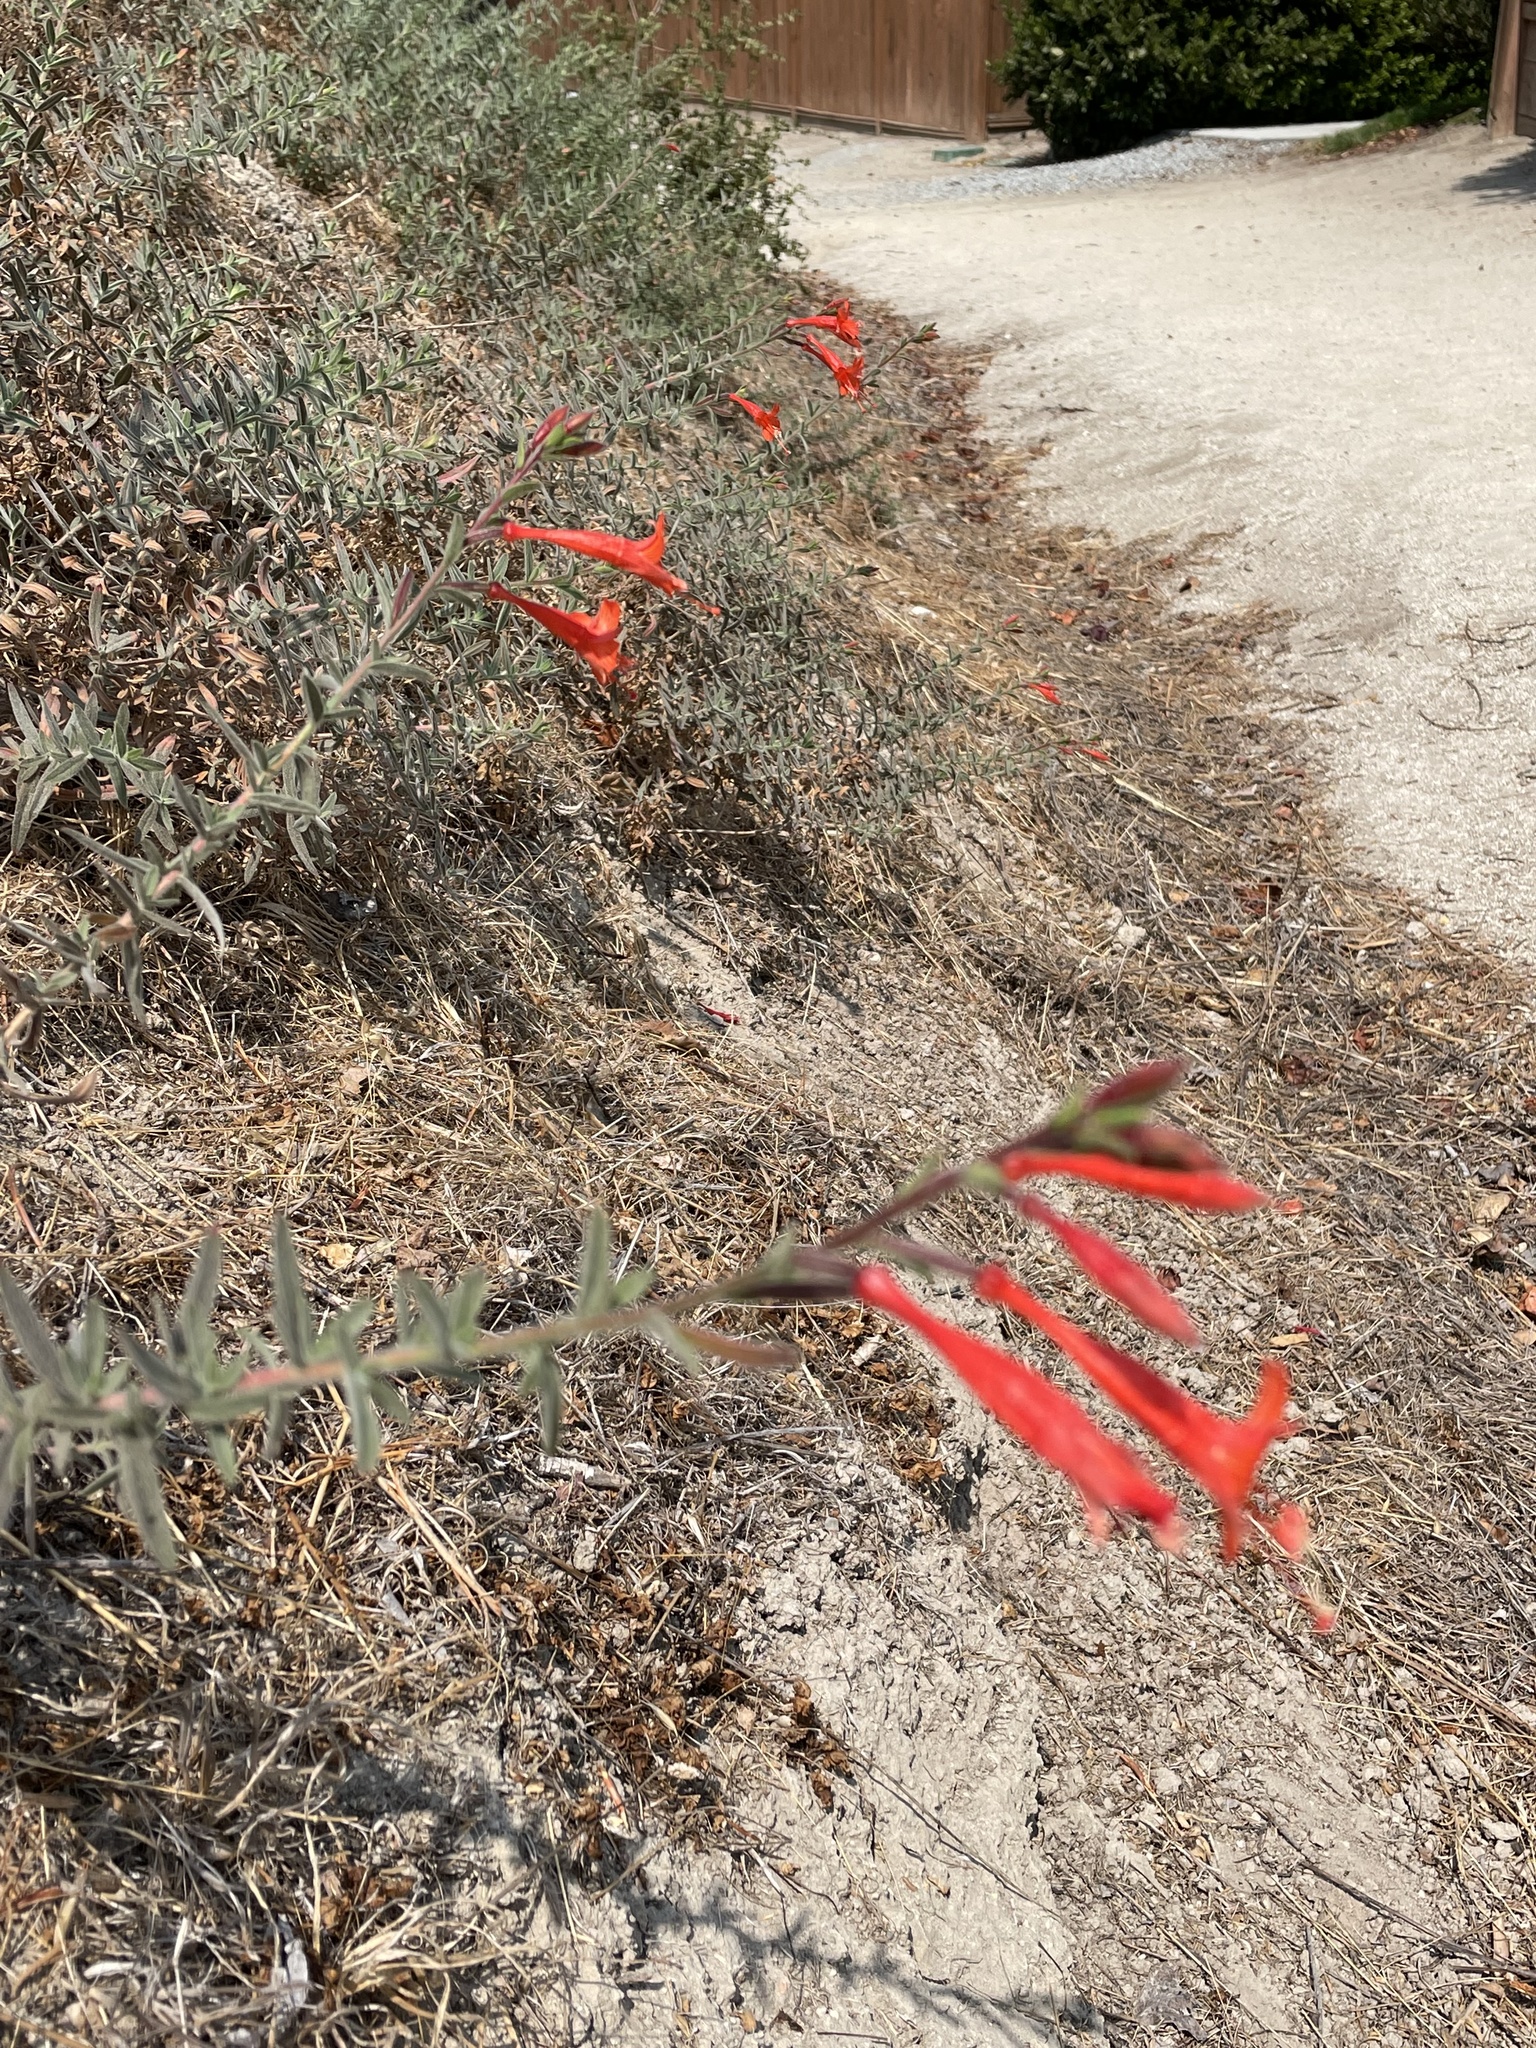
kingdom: Plantae
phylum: Tracheophyta
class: Magnoliopsida
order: Myrtales
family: Onagraceae
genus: Epilobium
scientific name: Epilobium canum
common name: California-fuchsia
